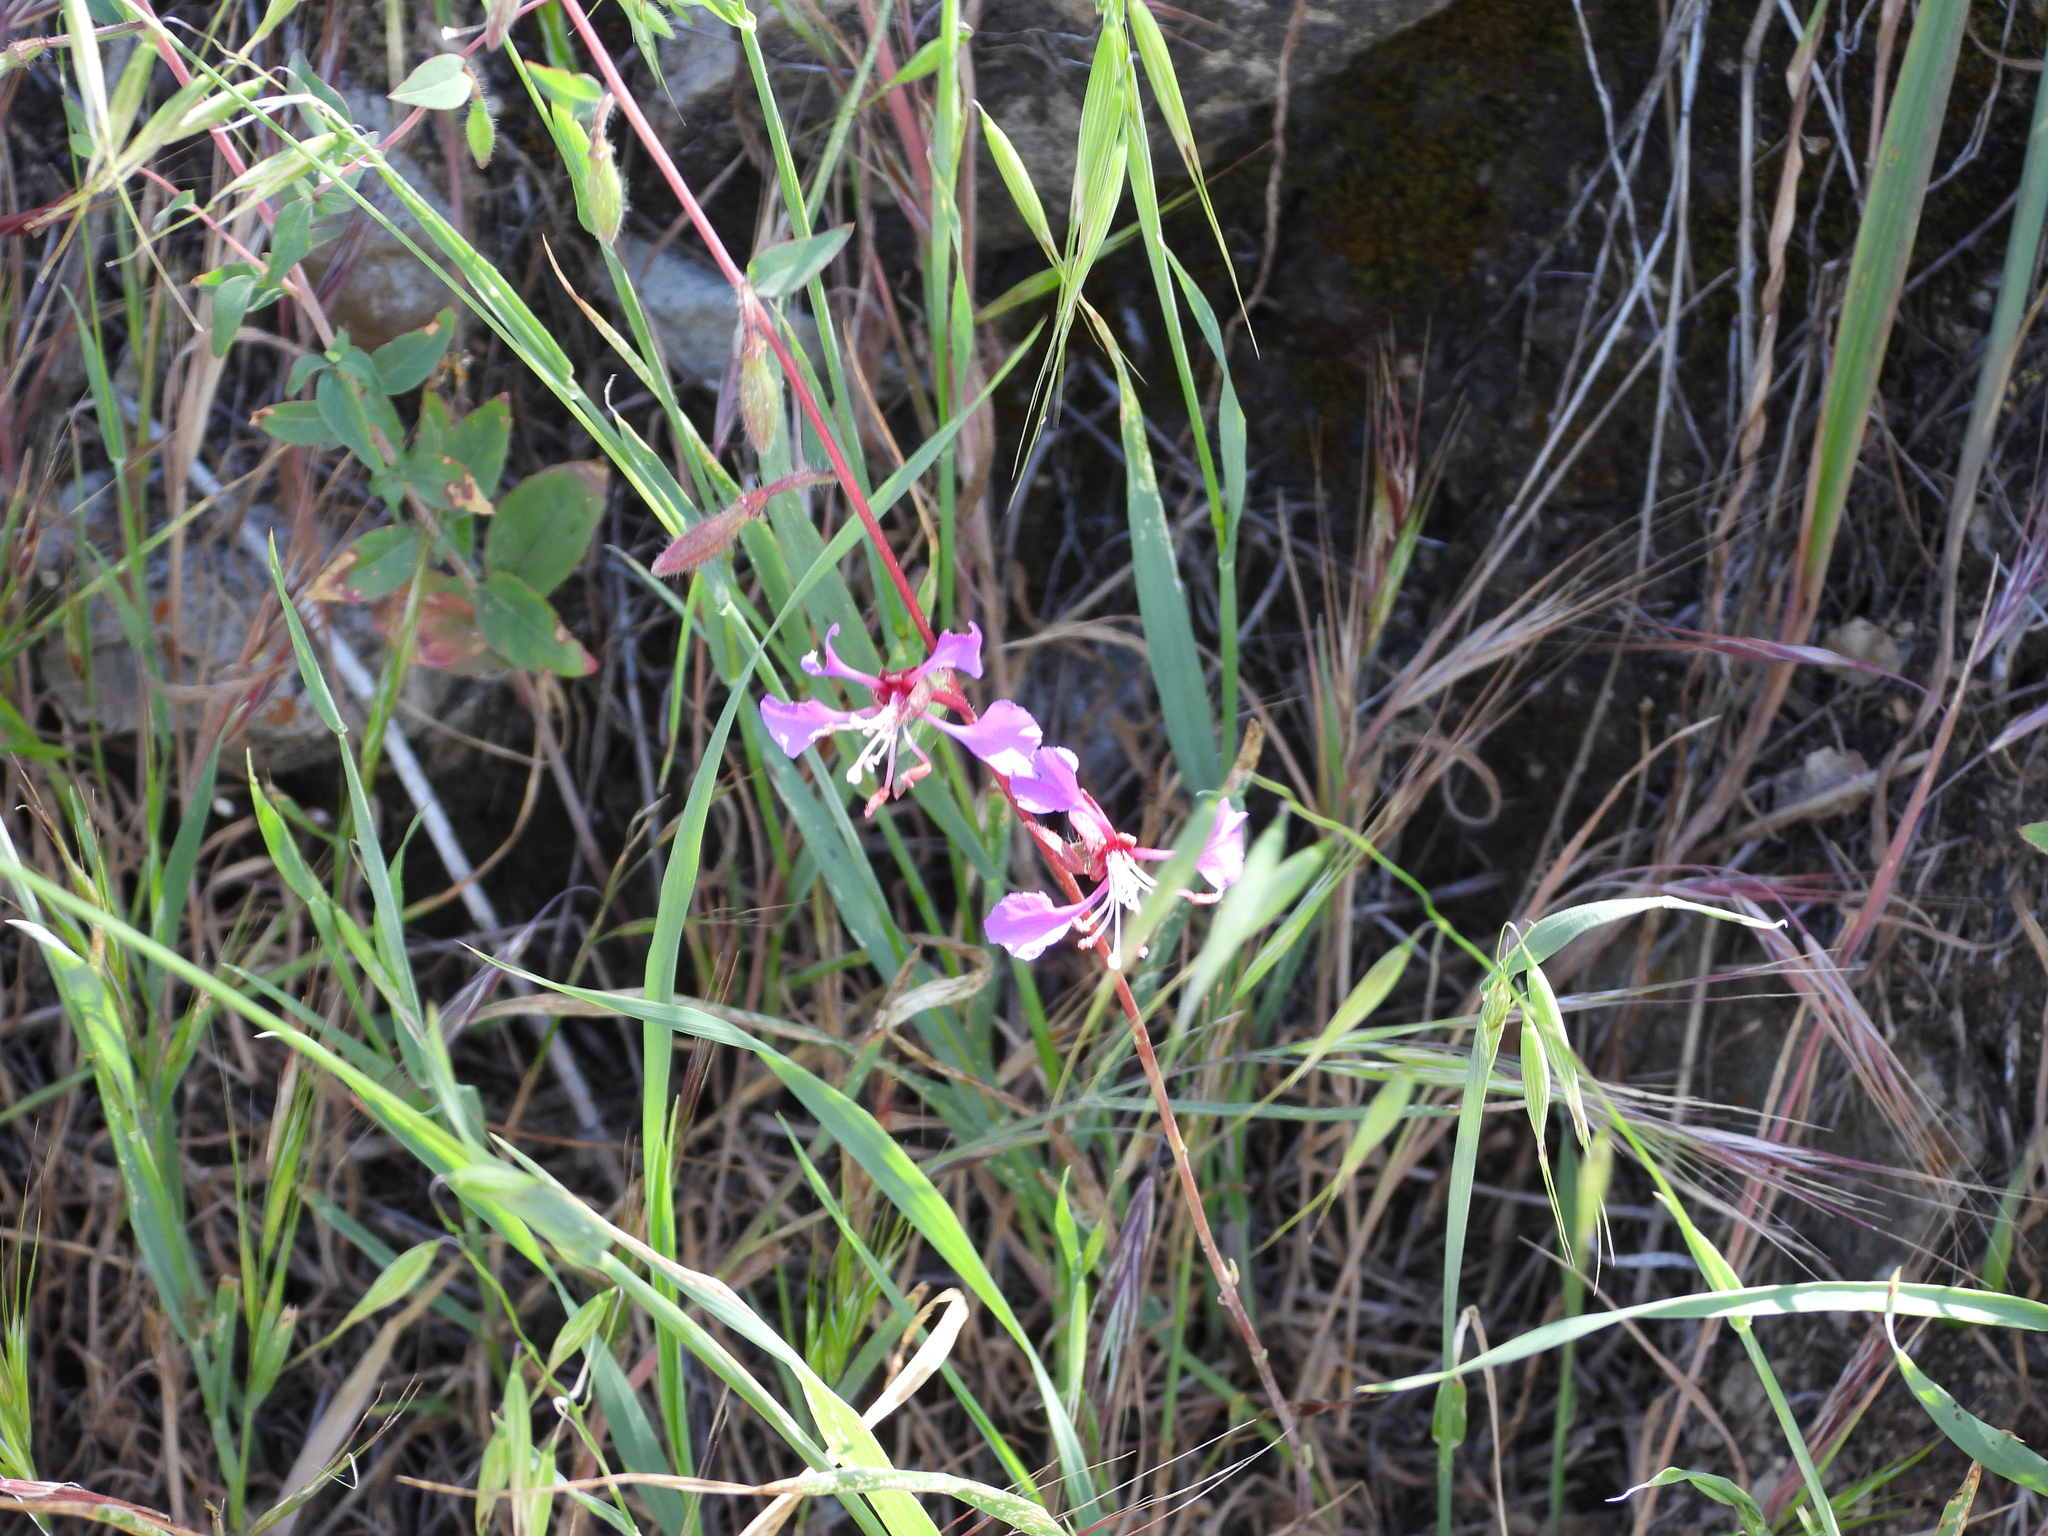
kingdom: Plantae
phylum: Tracheophyta
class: Magnoliopsida
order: Myrtales
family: Onagraceae
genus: Clarkia
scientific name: Clarkia unguiculata
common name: Clarkia
